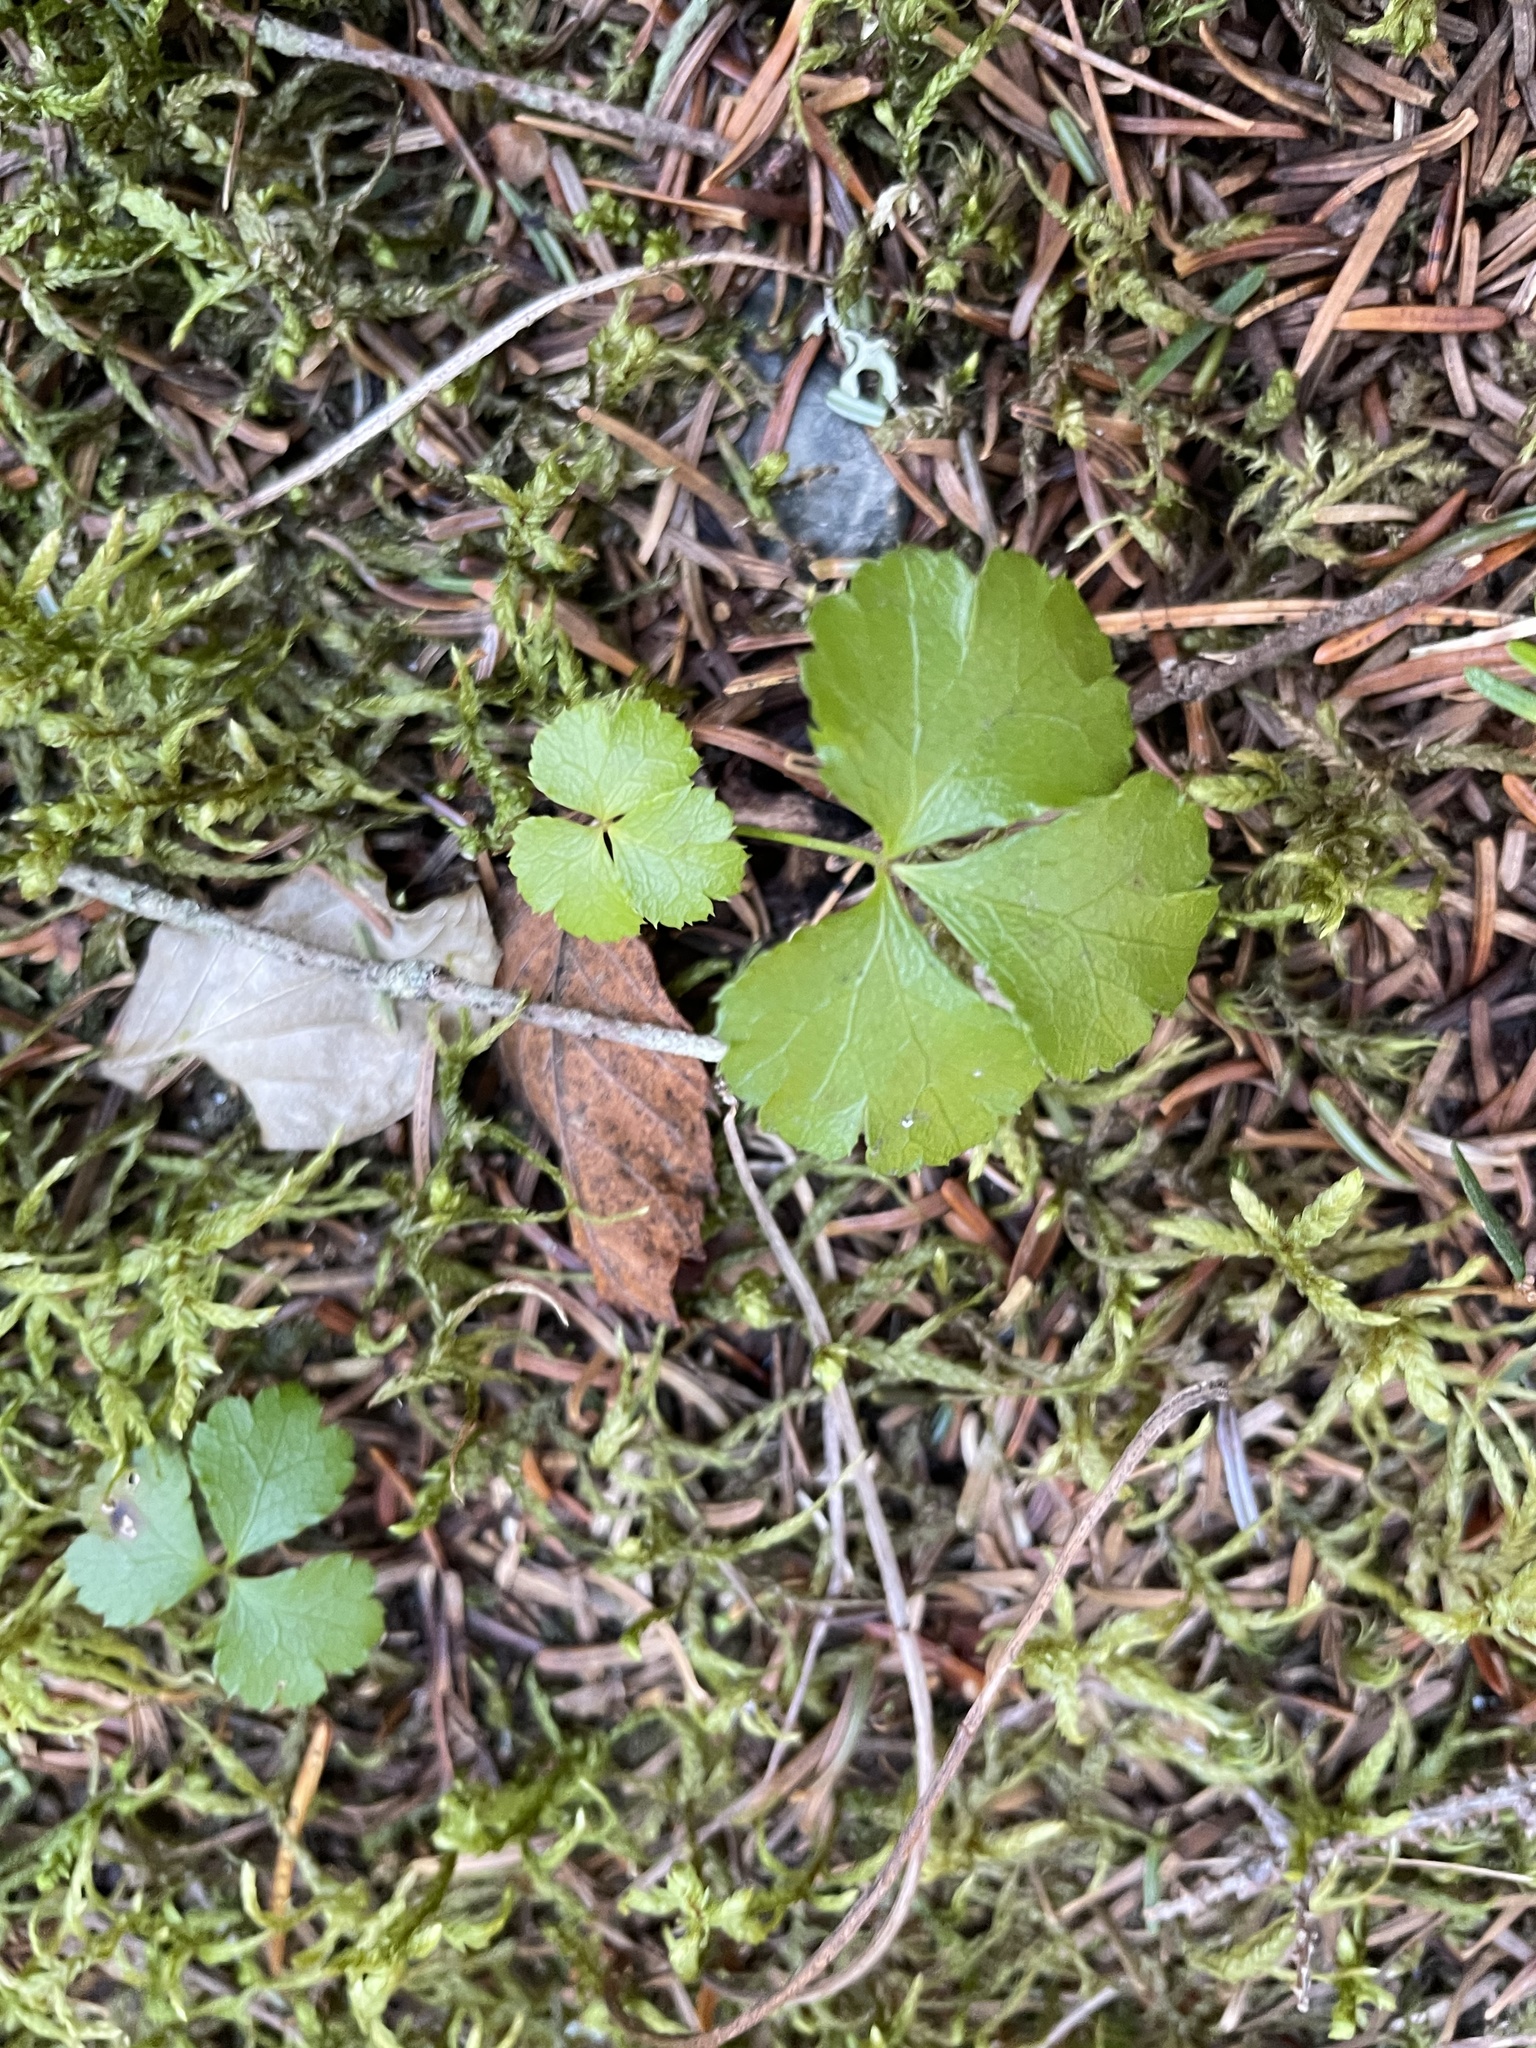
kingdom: Plantae
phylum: Tracheophyta
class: Magnoliopsida
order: Ranunculales
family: Ranunculaceae
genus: Coptis
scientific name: Coptis trifolia
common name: Canker-root
